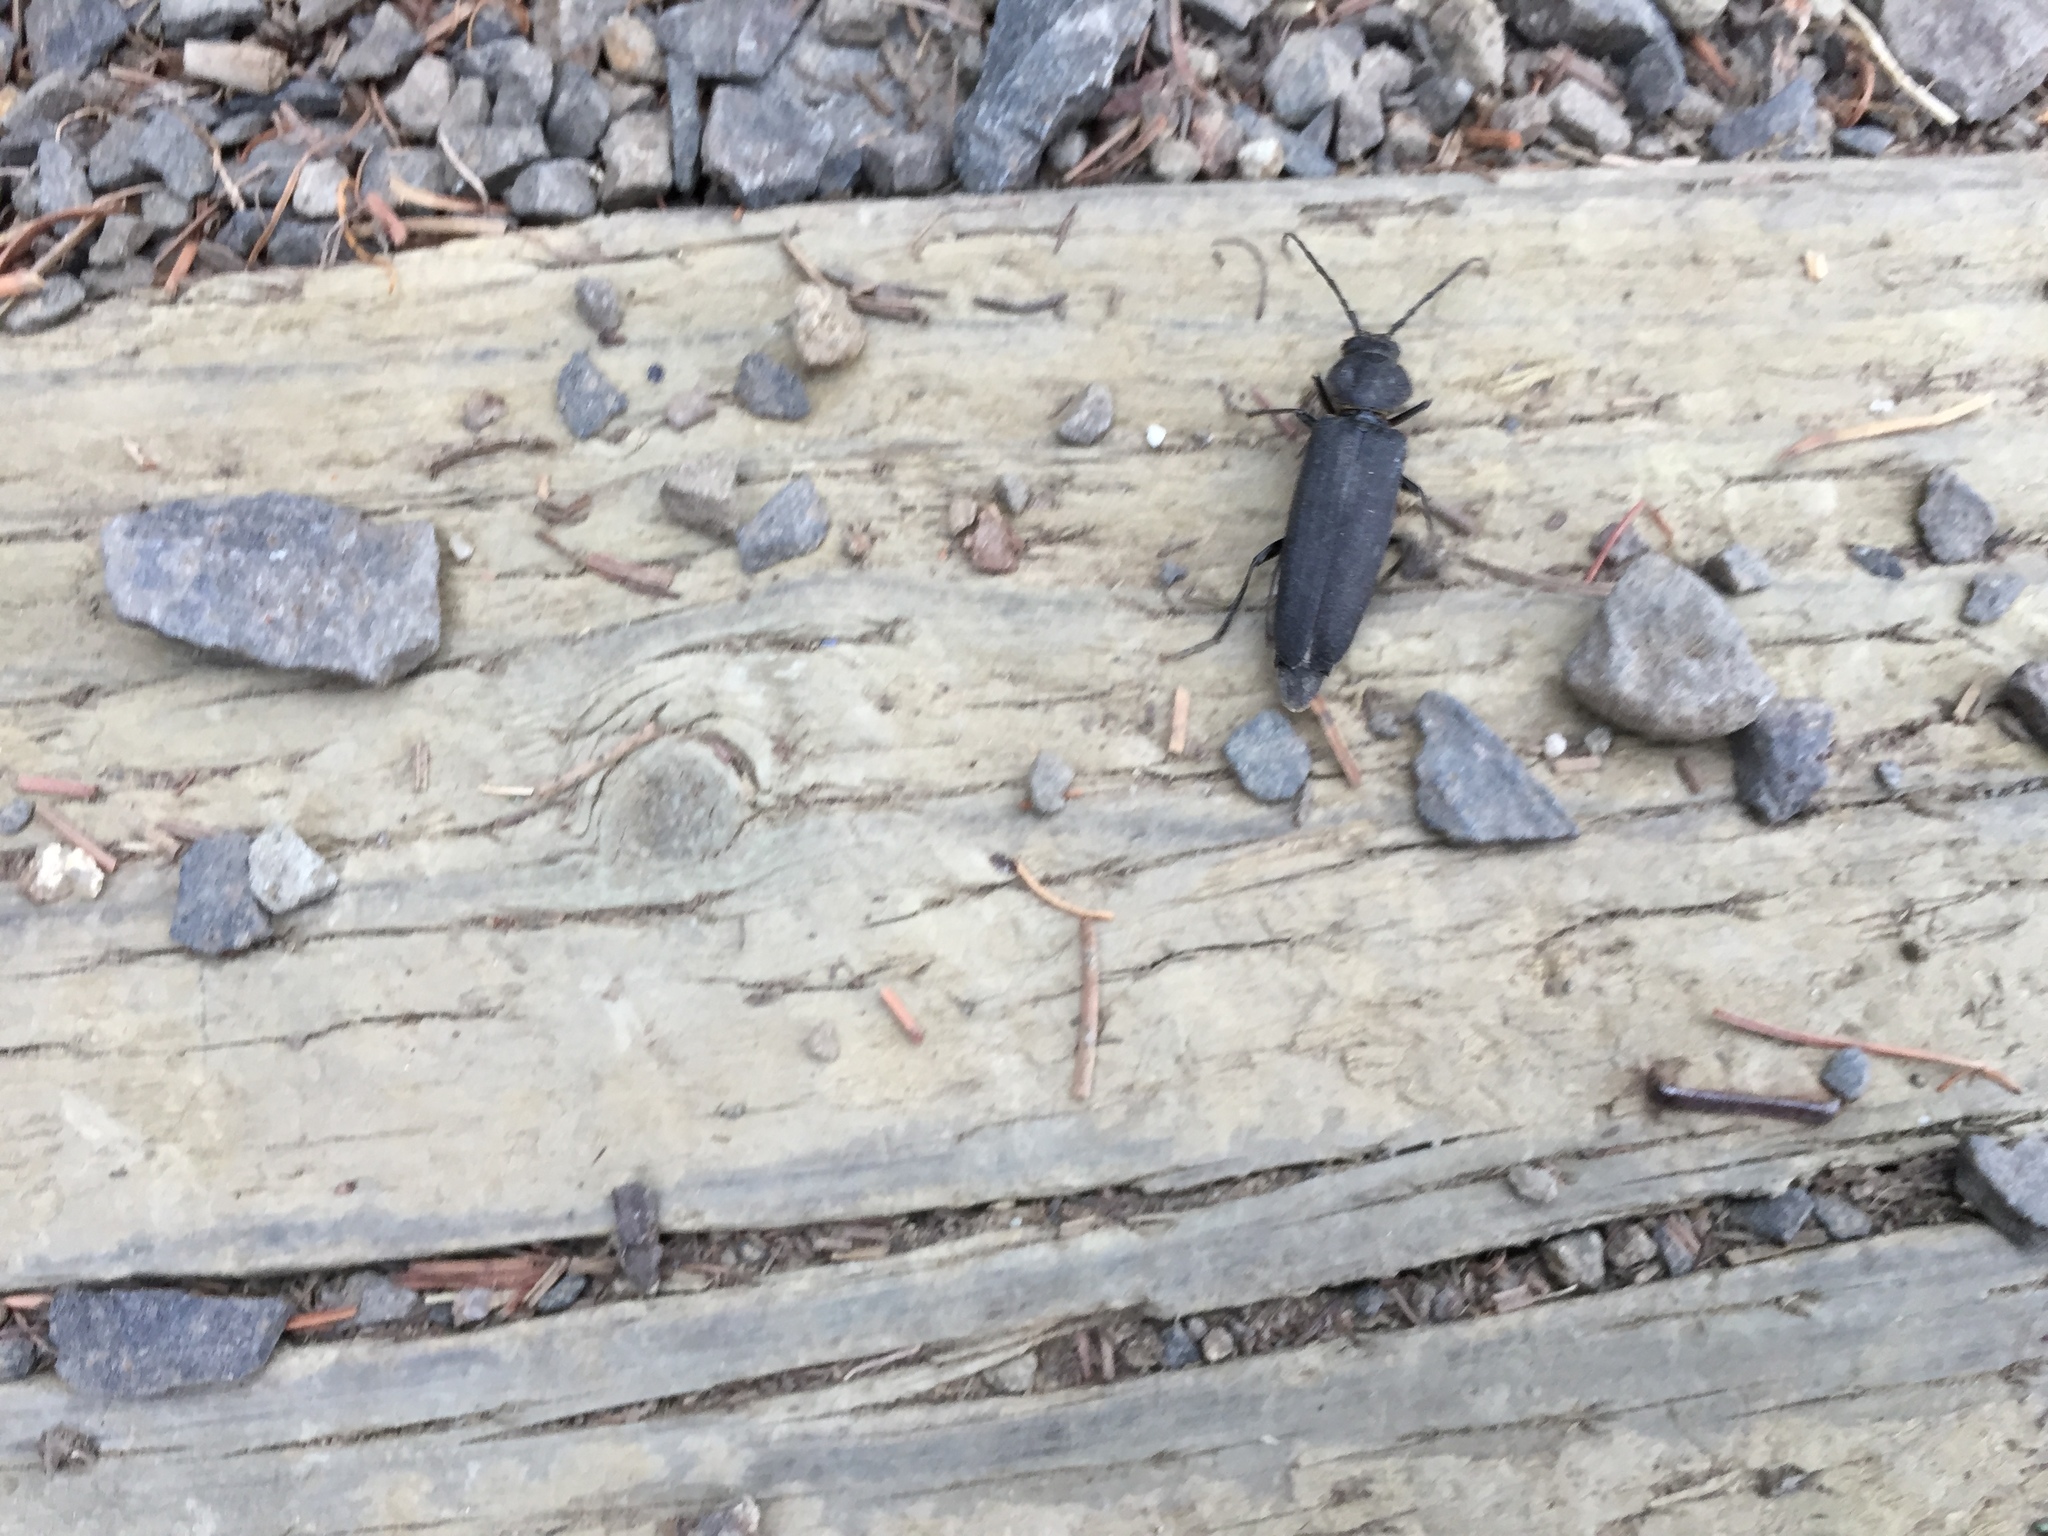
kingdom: Animalia
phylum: Arthropoda
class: Insecta
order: Coleoptera
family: Cerambycidae
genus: Arhopalus
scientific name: Arhopalus foveicollis
